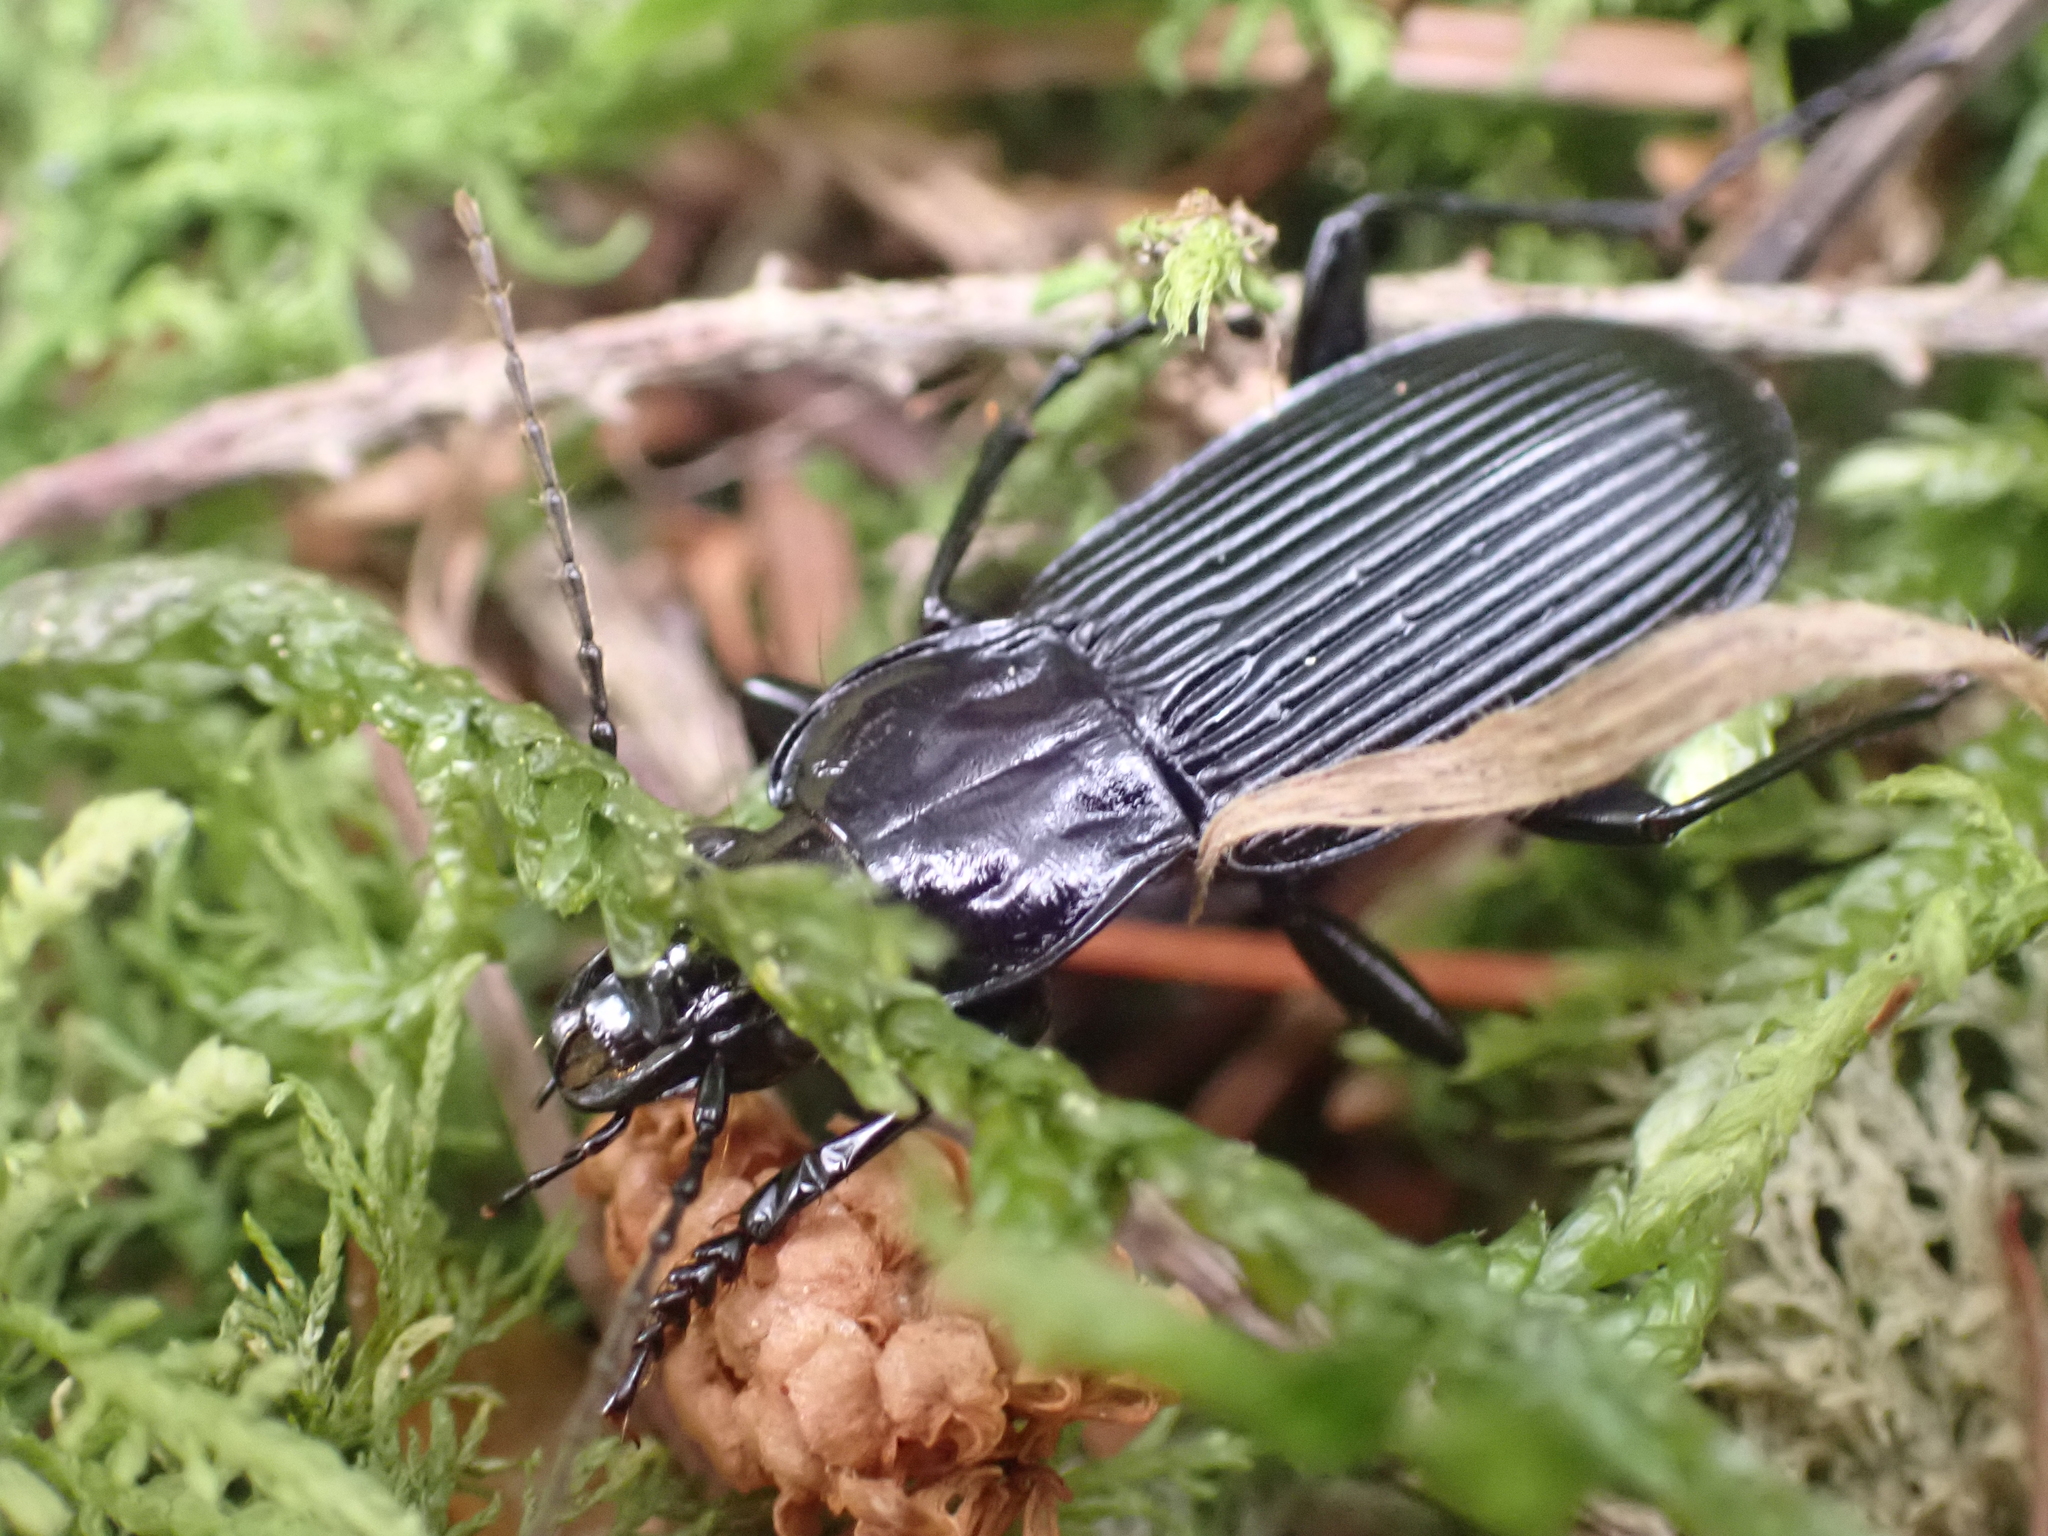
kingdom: Animalia
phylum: Arthropoda
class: Insecta
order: Coleoptera
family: Carabidae
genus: Pterostichus
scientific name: Pterostichus niger
